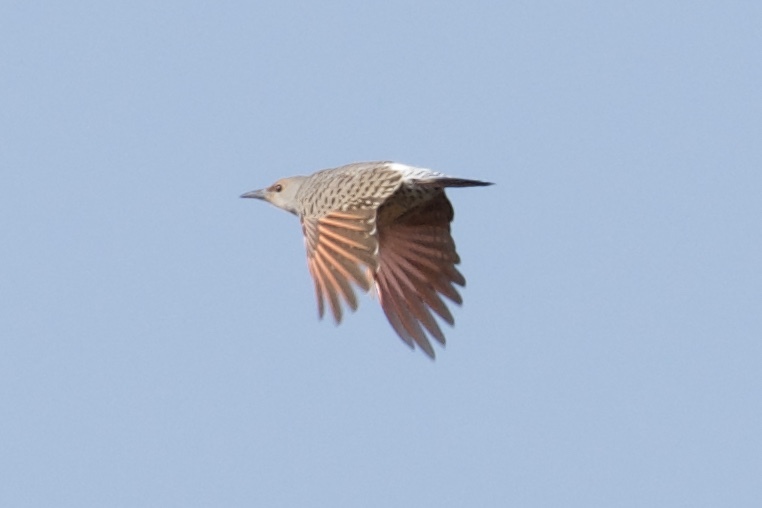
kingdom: Animalia
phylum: Chordata
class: Aves
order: Piciformes
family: Picidae
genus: Colaptes
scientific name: Colaptes
